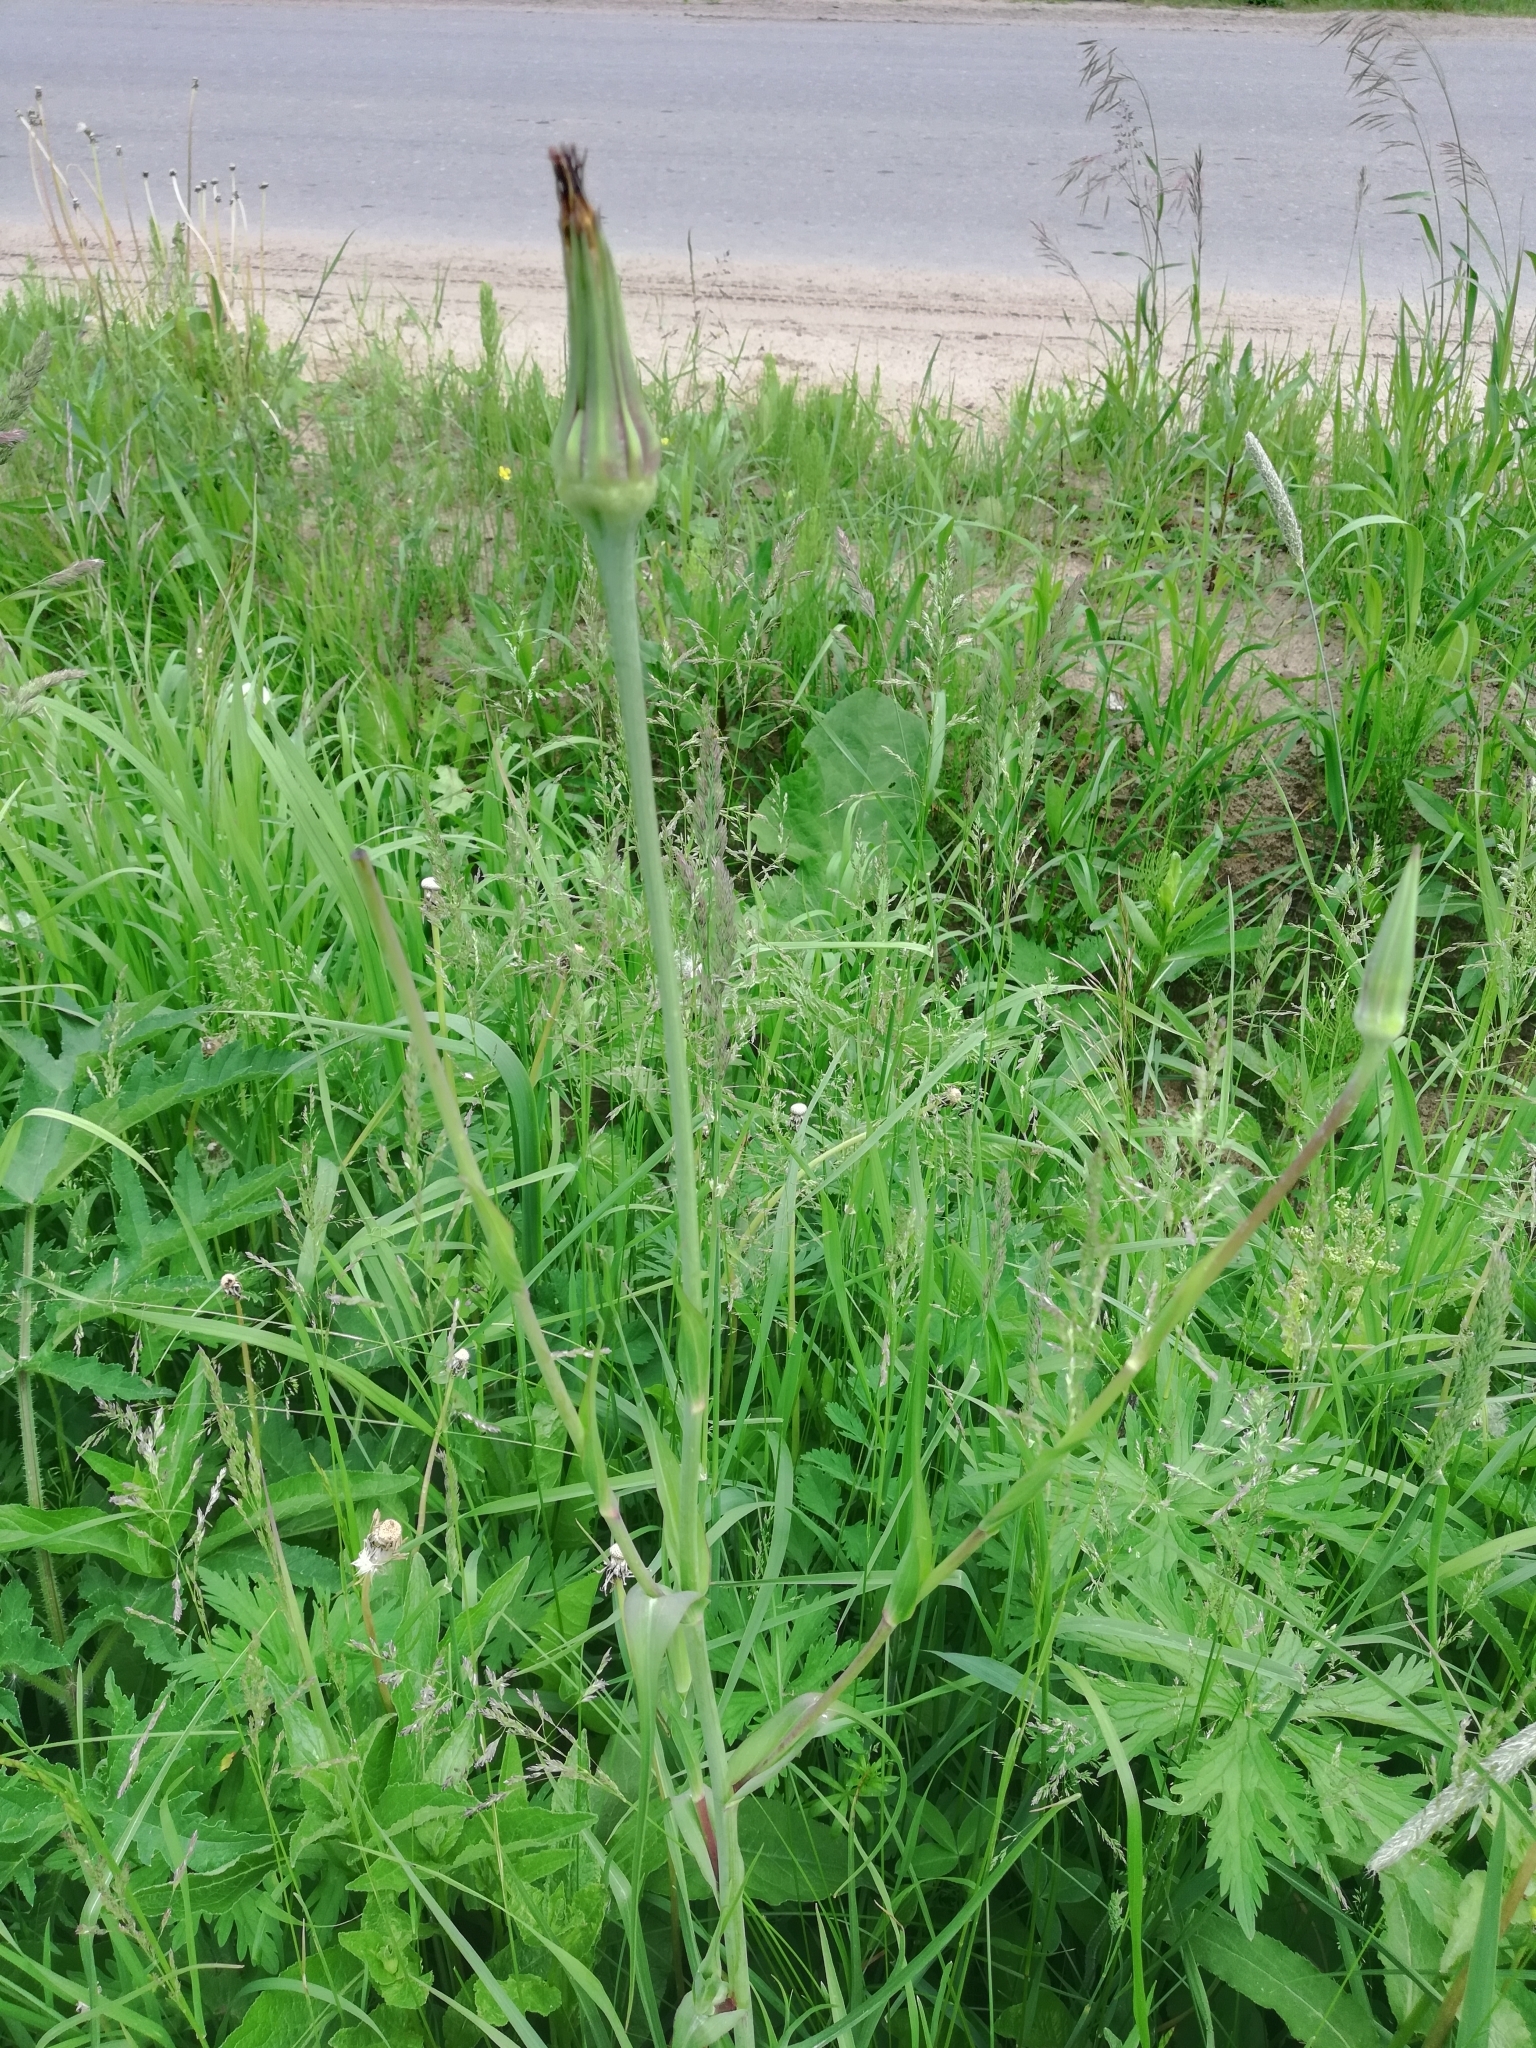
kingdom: Plantae
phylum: Tracheophyta
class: Magnoliopsida
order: Asterales
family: Asteraceae
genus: Tragopogon
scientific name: Tragopogon dubius
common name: Yellow salsify
